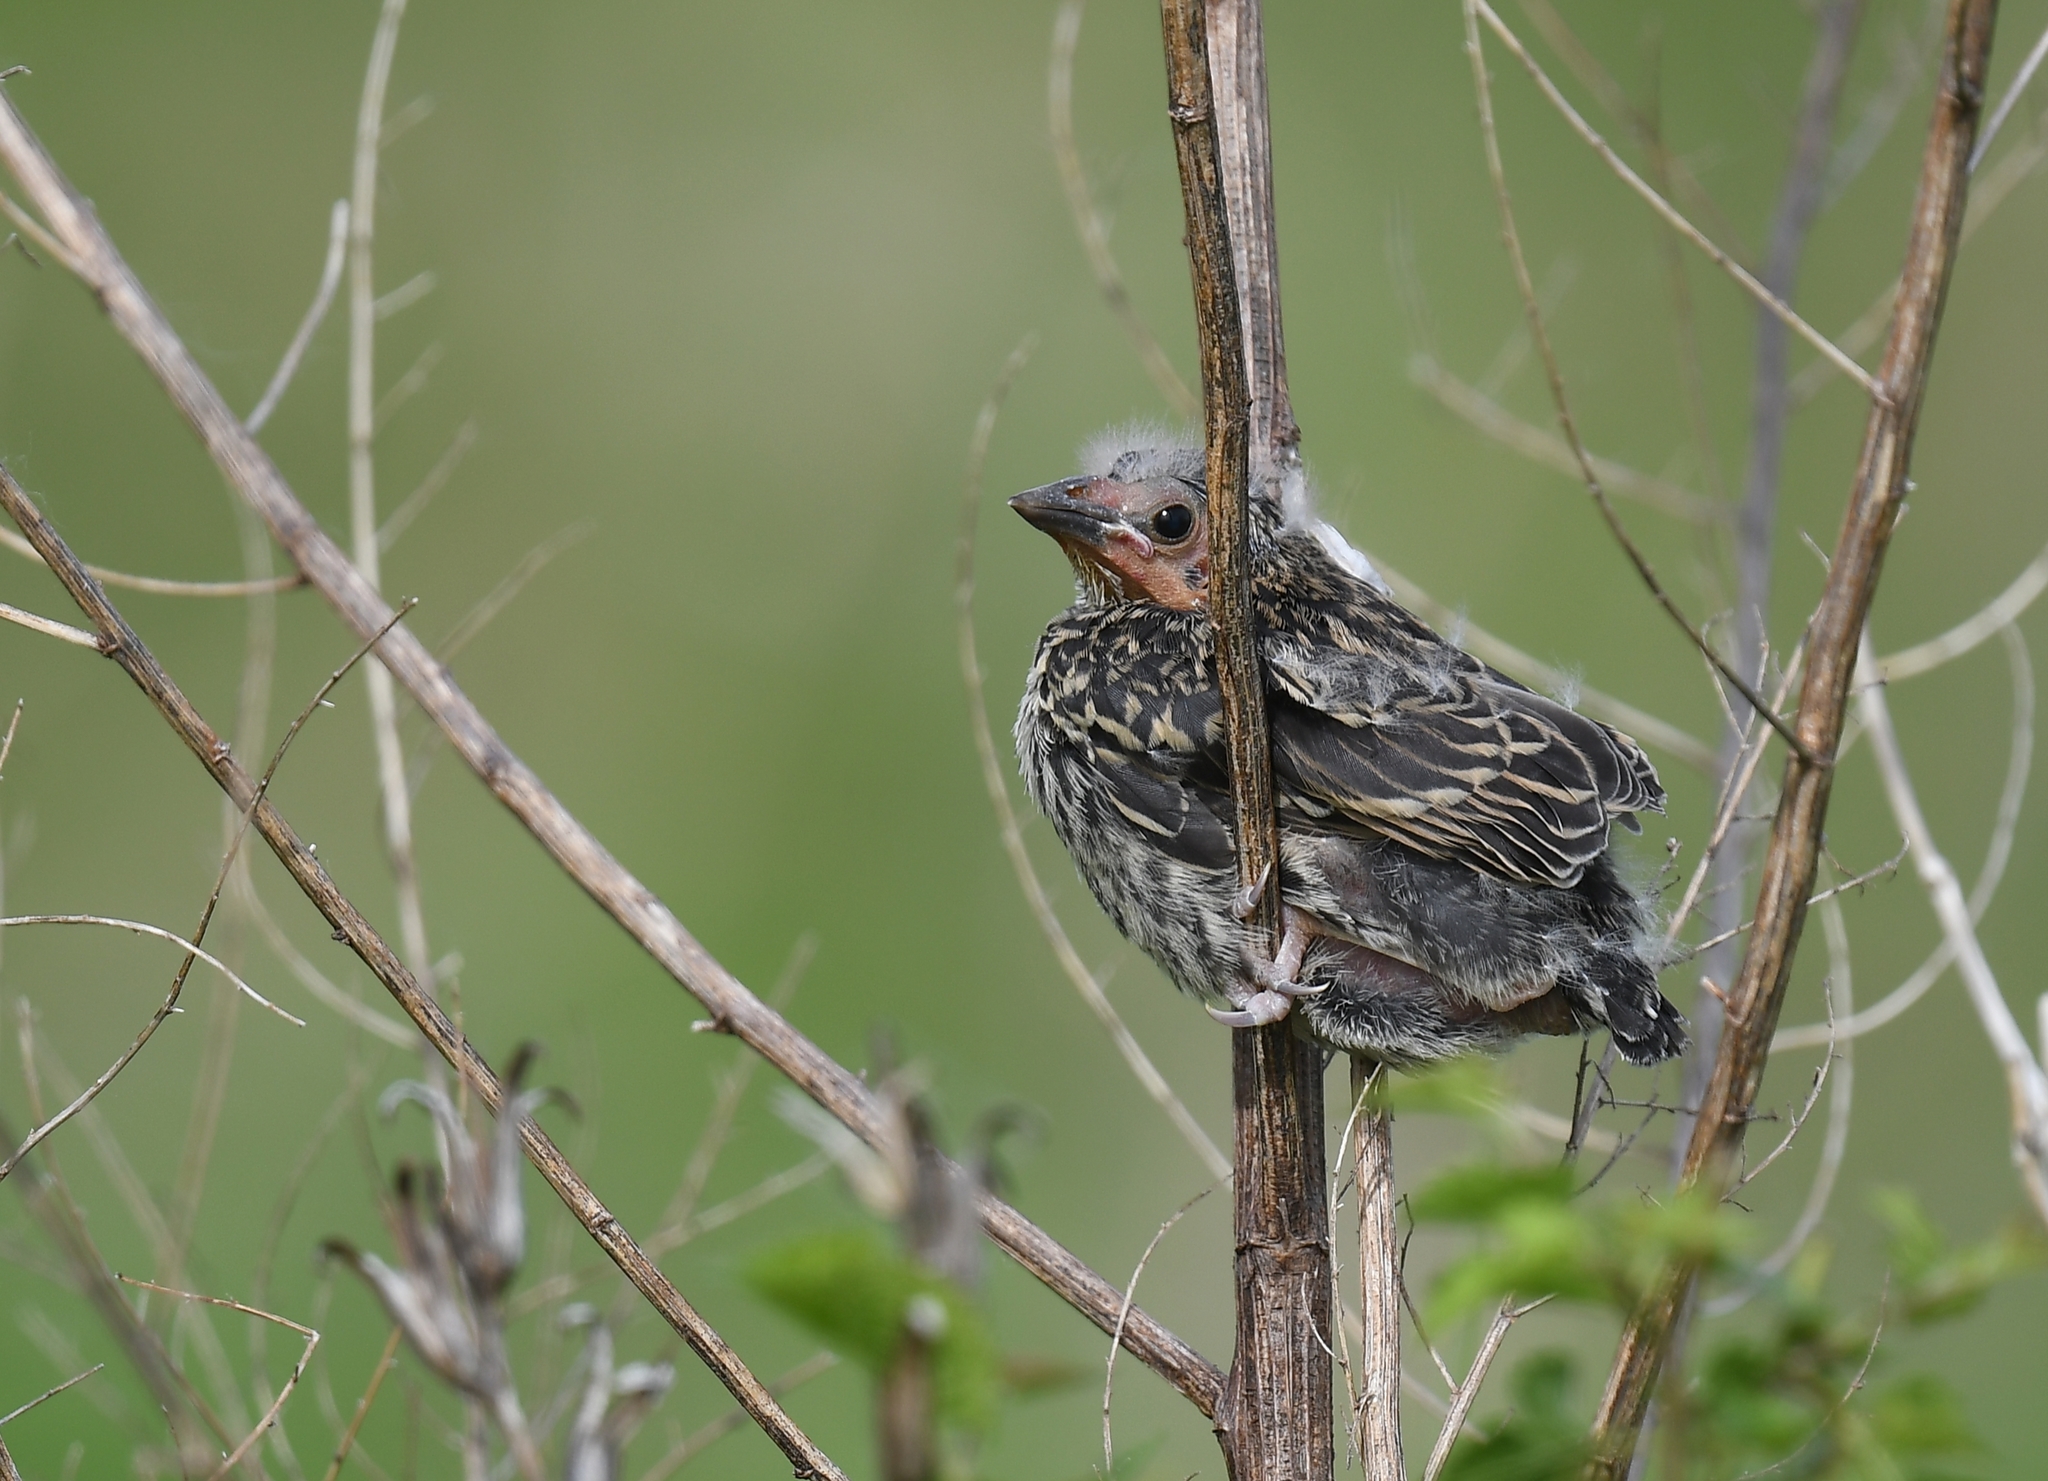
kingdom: Animalia
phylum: Chordata
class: Aves
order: Passeriformes
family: Icteridae
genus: Agelaius
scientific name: Agelaius phoeniceus
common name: Red-winged blackbird
